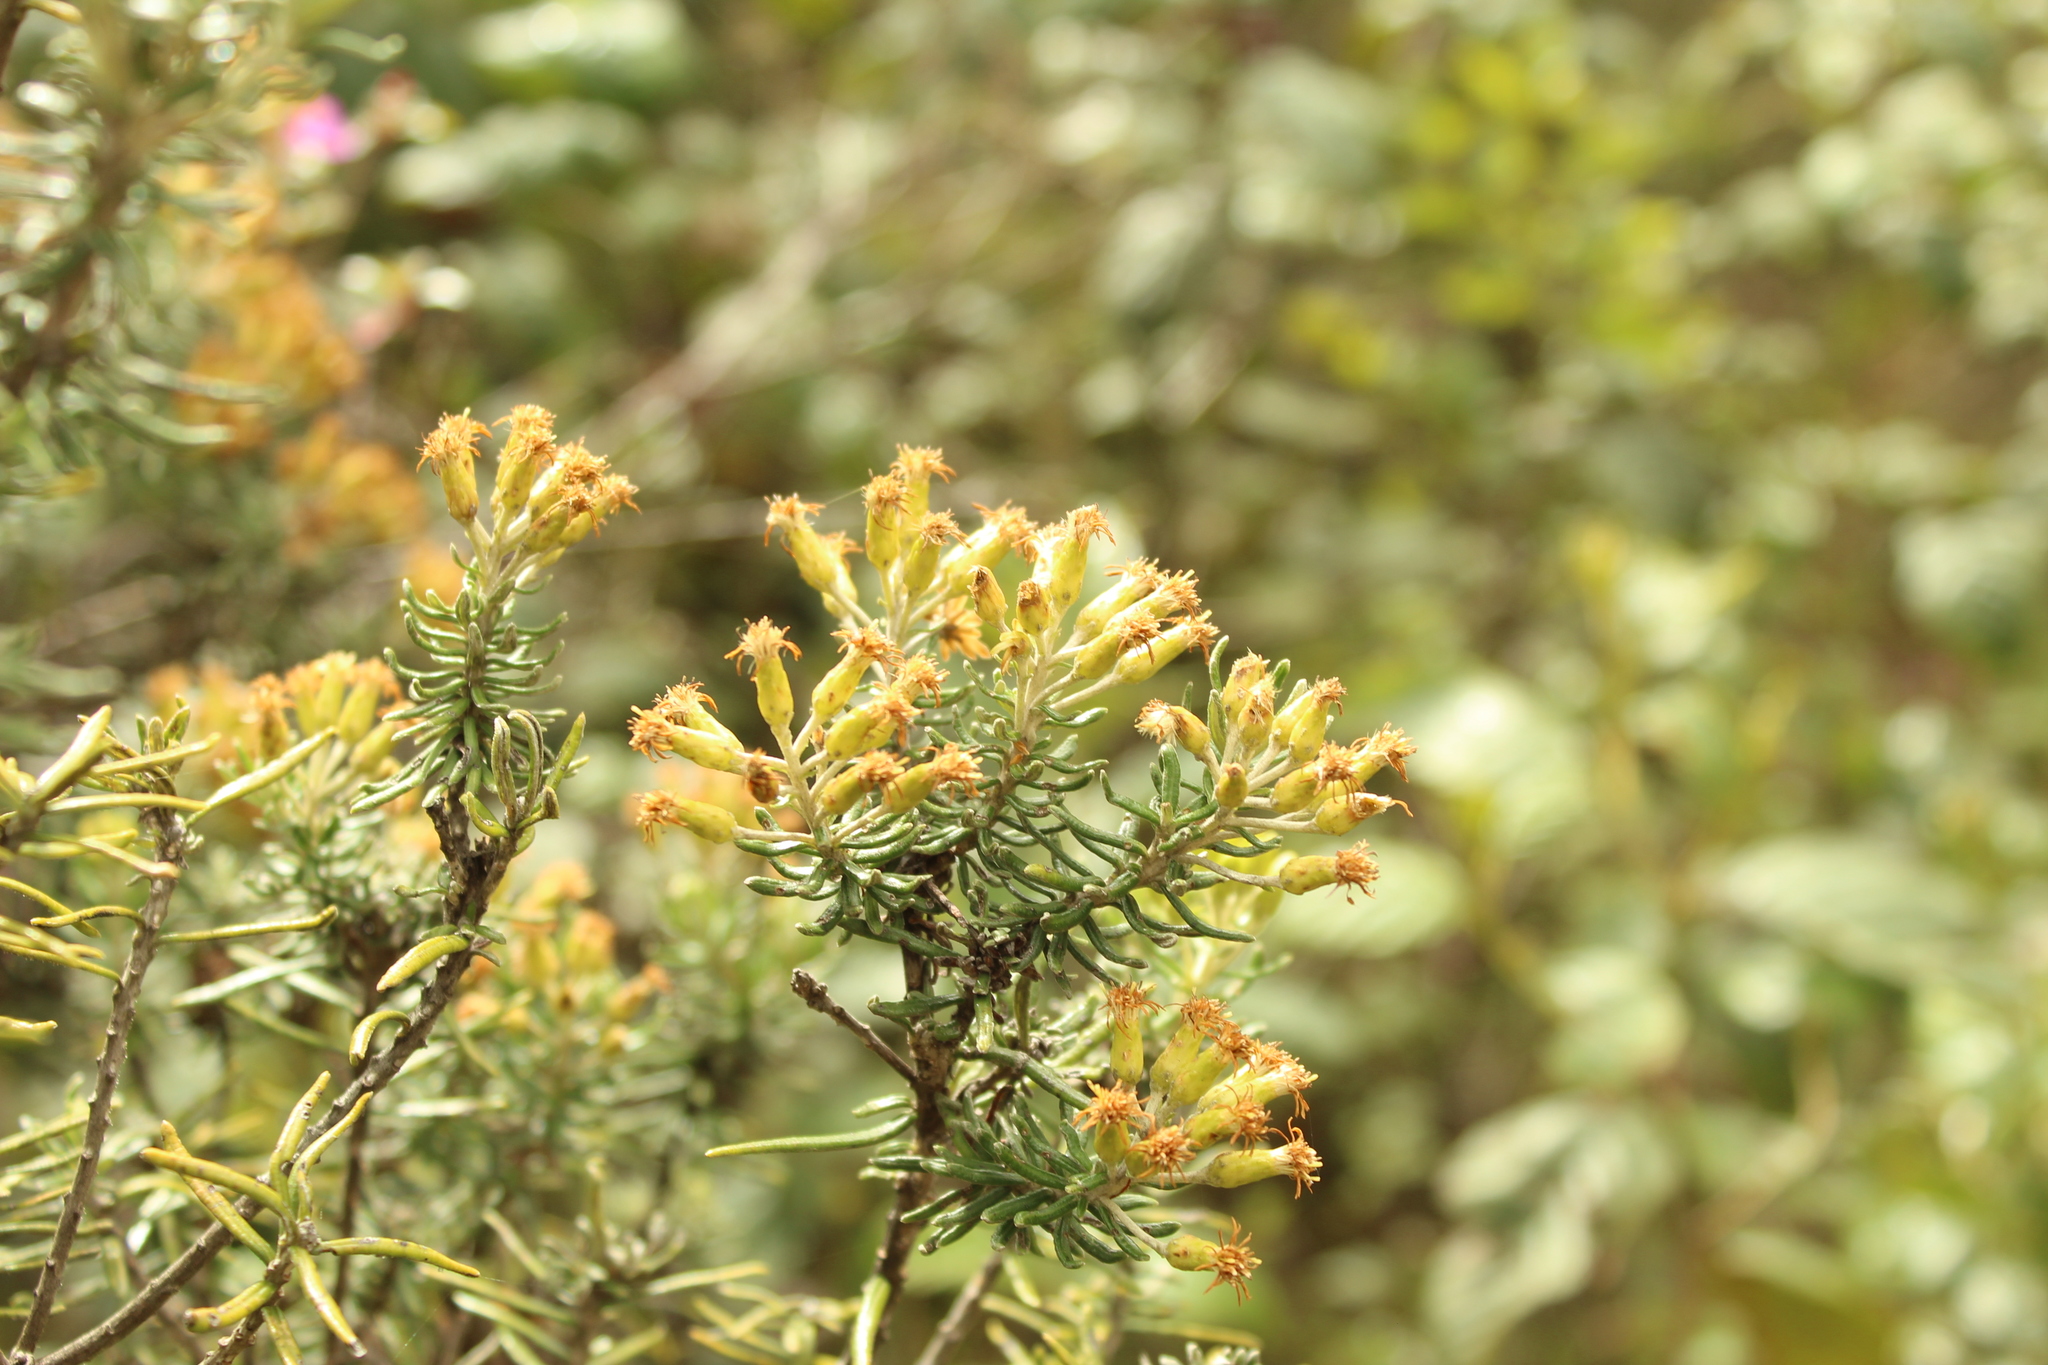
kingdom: Plantae
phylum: Tracheophyta
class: Magnoliopsida
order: Asterales
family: Asteraceae
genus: Linochilus
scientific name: Linochilus rosmarinifolius
